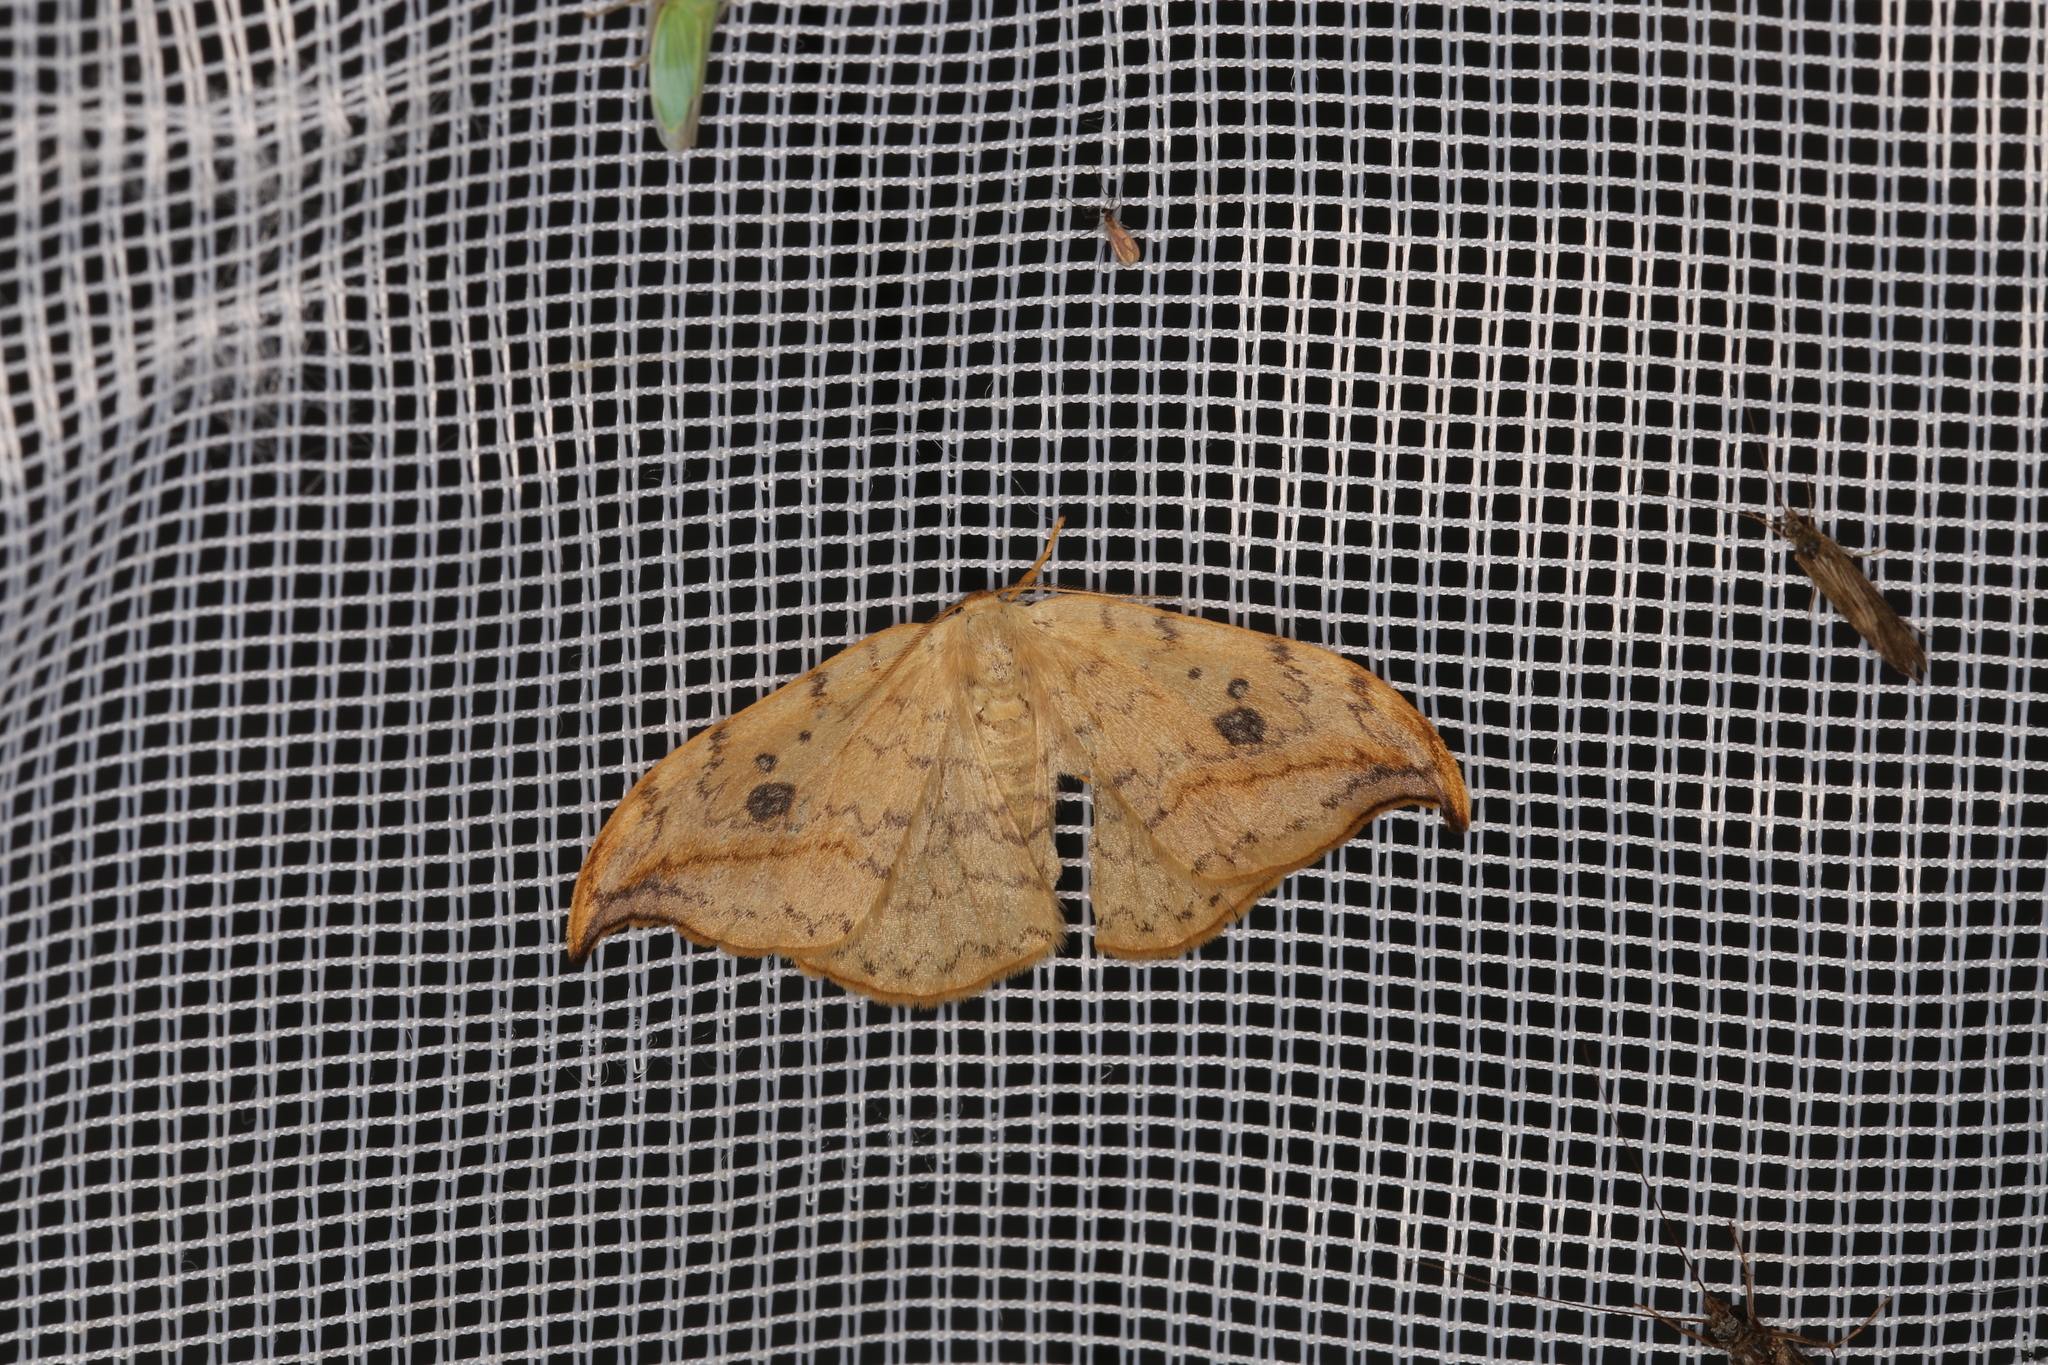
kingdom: Animalia
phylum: Arthropoda
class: Insecta
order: Lepidoptera
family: Drepanidae
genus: Drepana
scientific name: Drepana falcataria
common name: Pebble hook-tip
